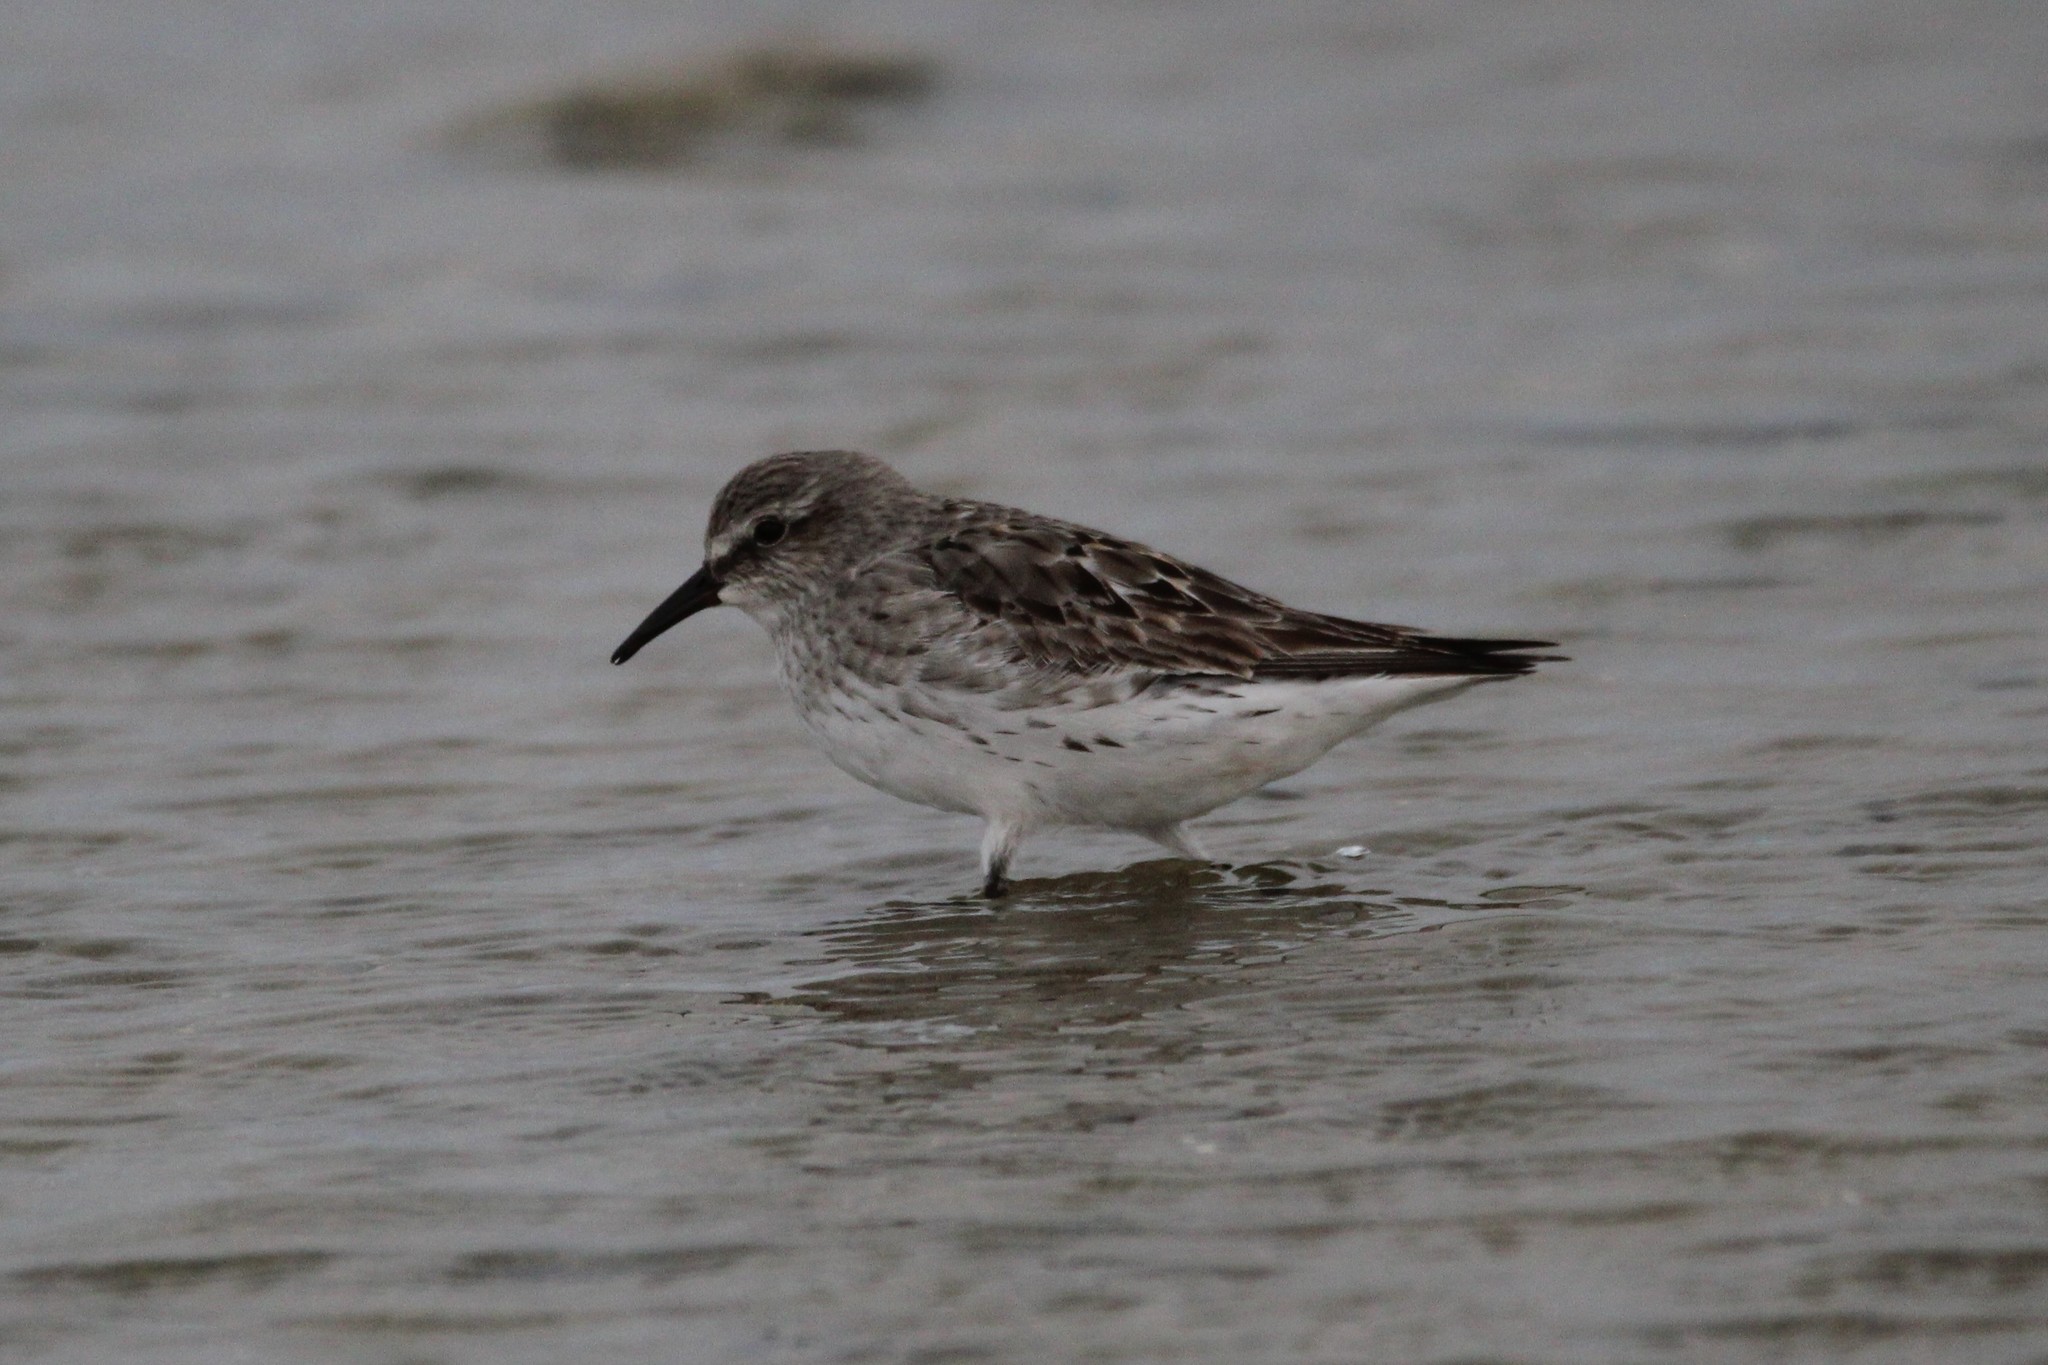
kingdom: Animalia
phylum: Chordata
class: Aves
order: Charadriiformes
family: Scolopacidae
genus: Calidris
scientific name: Calidris fuscicollis
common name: White-rumped sandpiper
